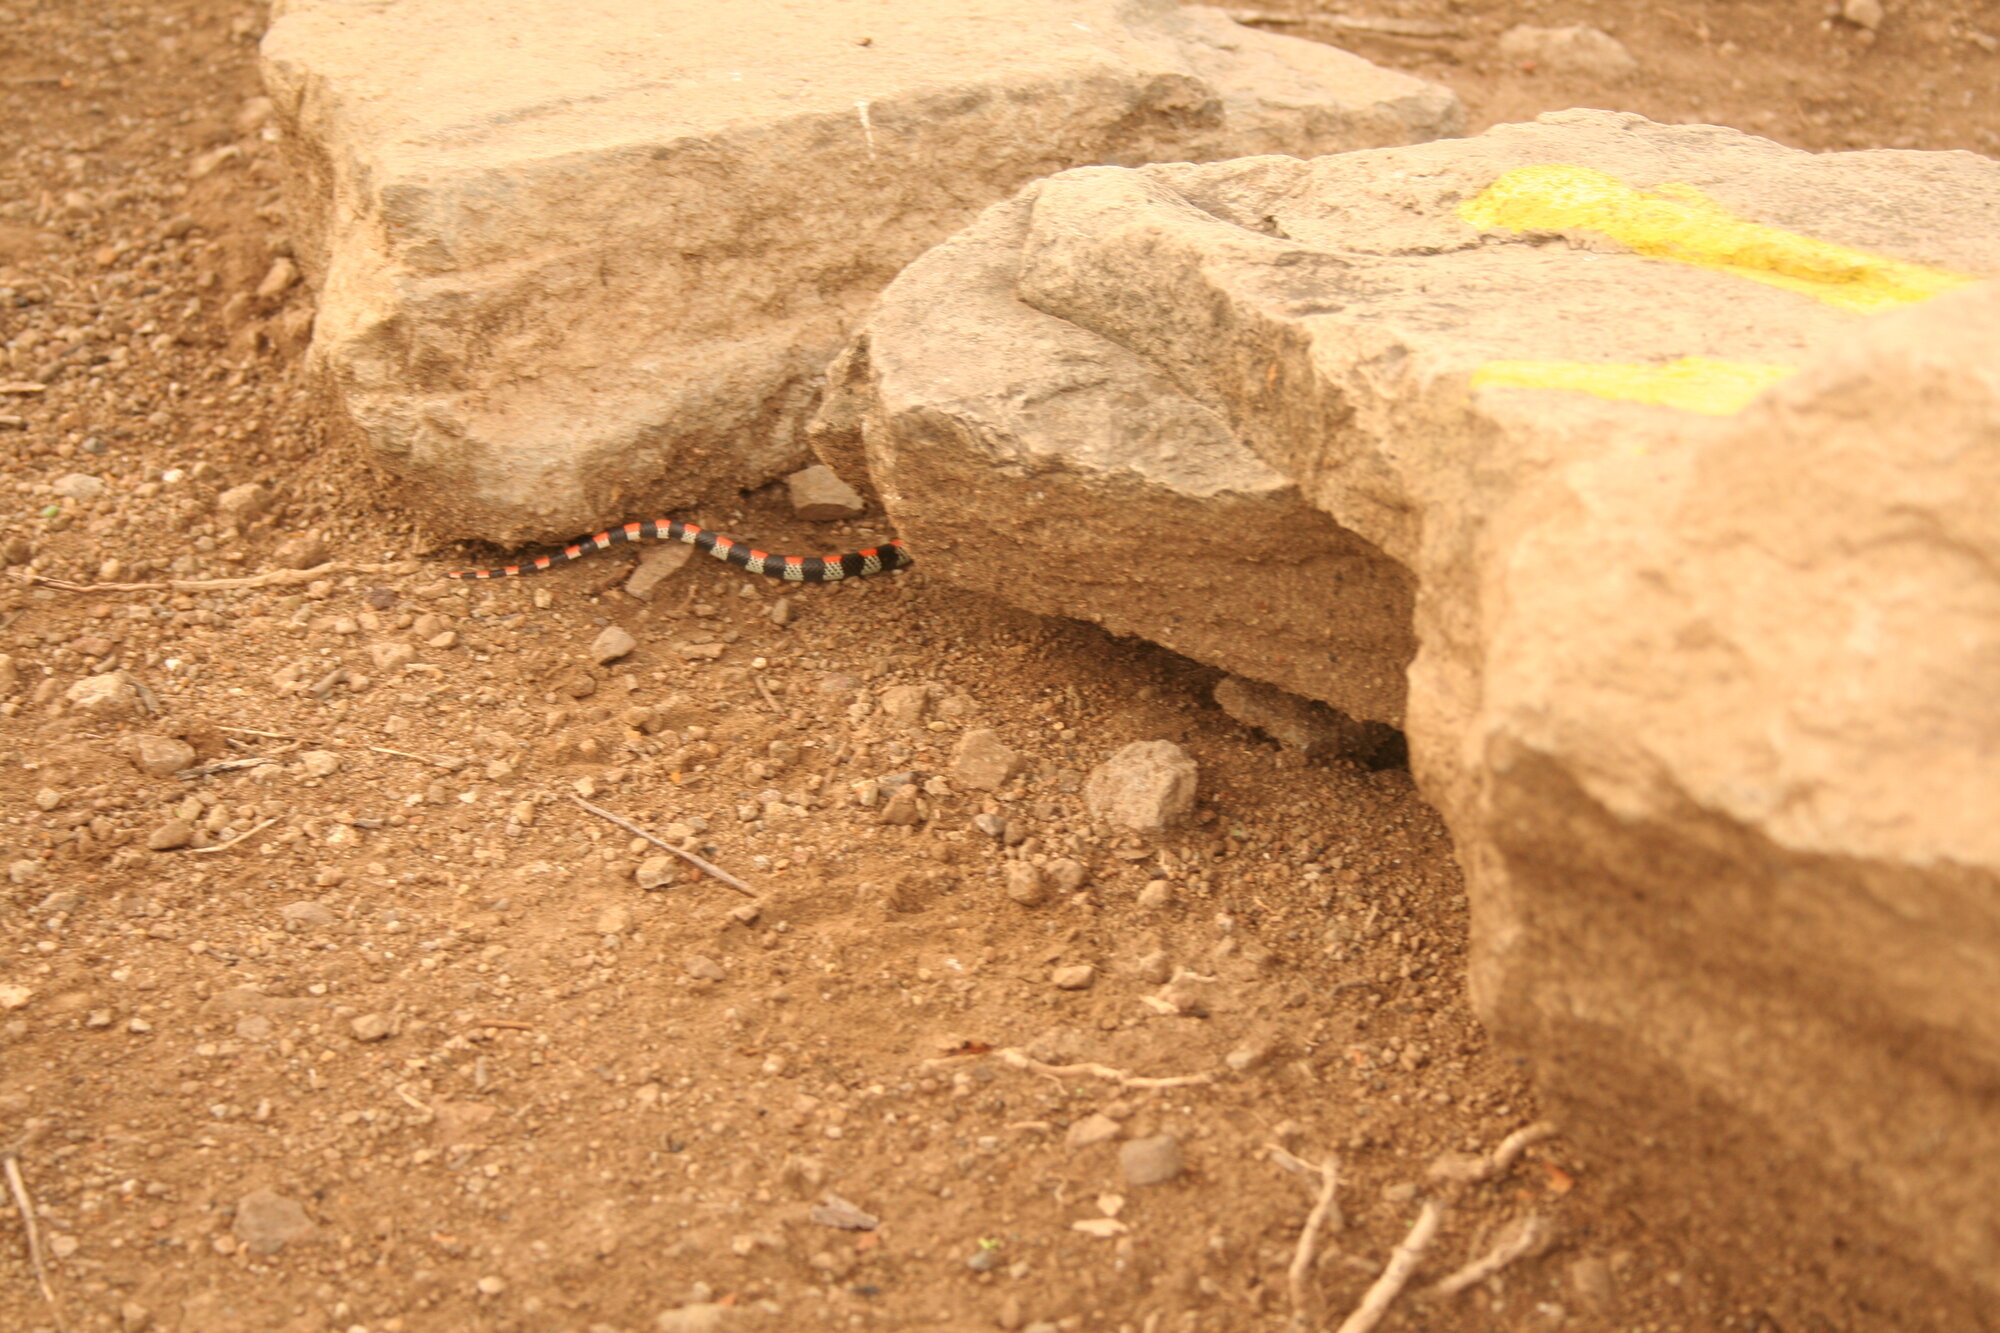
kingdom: Animalia
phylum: Chordata
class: Squamata
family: Colubridae
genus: Scolecophis
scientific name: Scolecophis atrocinctus
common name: Black-banded snake
